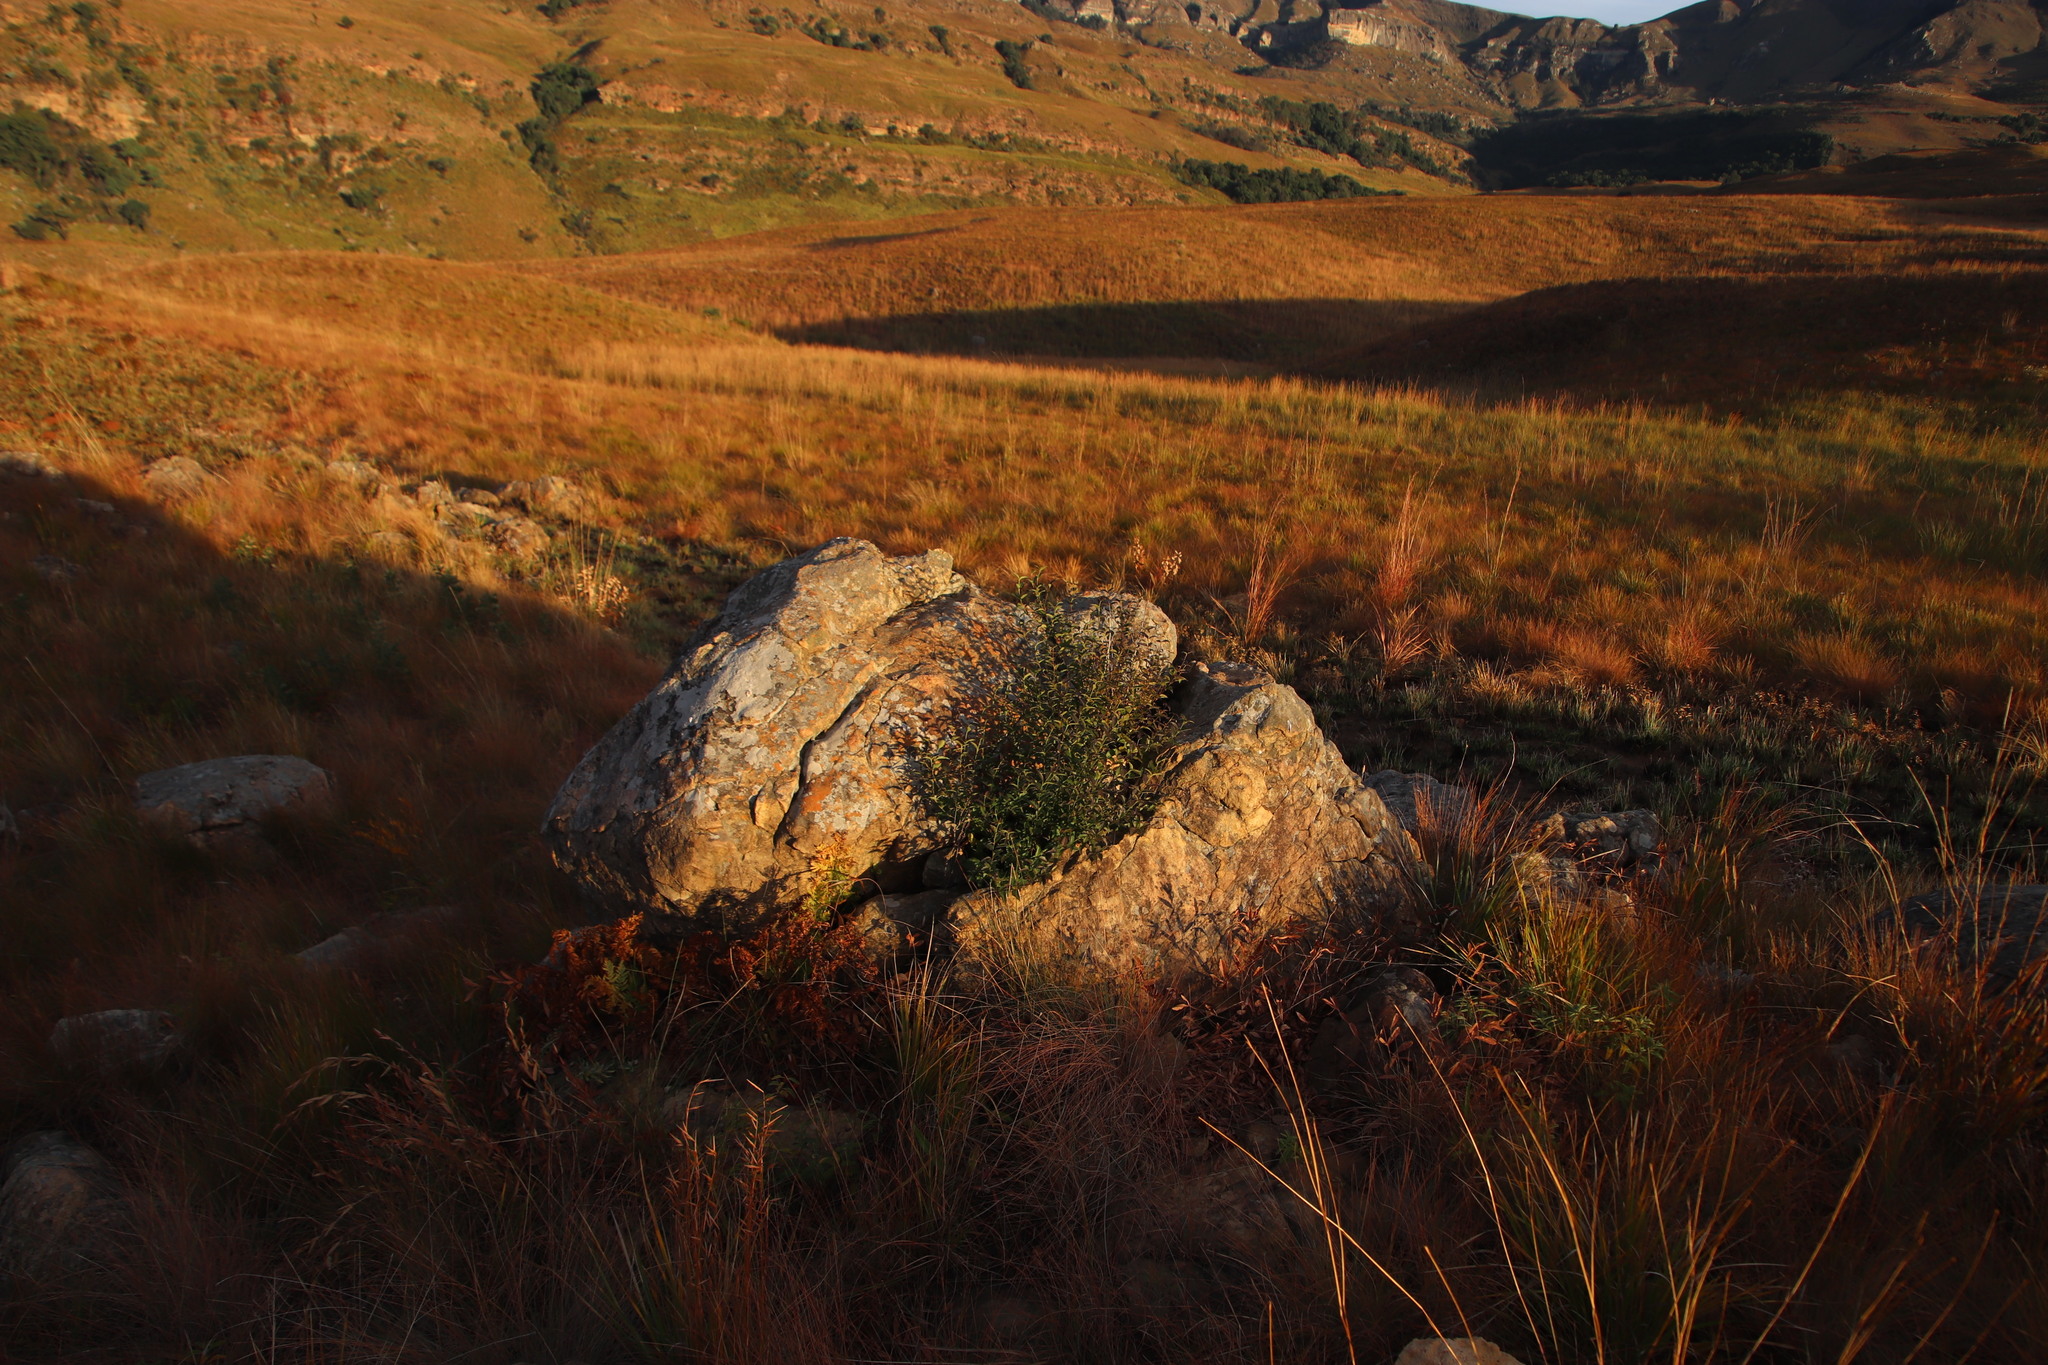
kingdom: Plantae
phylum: Tracheophyta
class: Magnoliopsida
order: Lamiales
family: Stilbaceae
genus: Halleria
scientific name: Halleria lucida
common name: Tree fuschia
